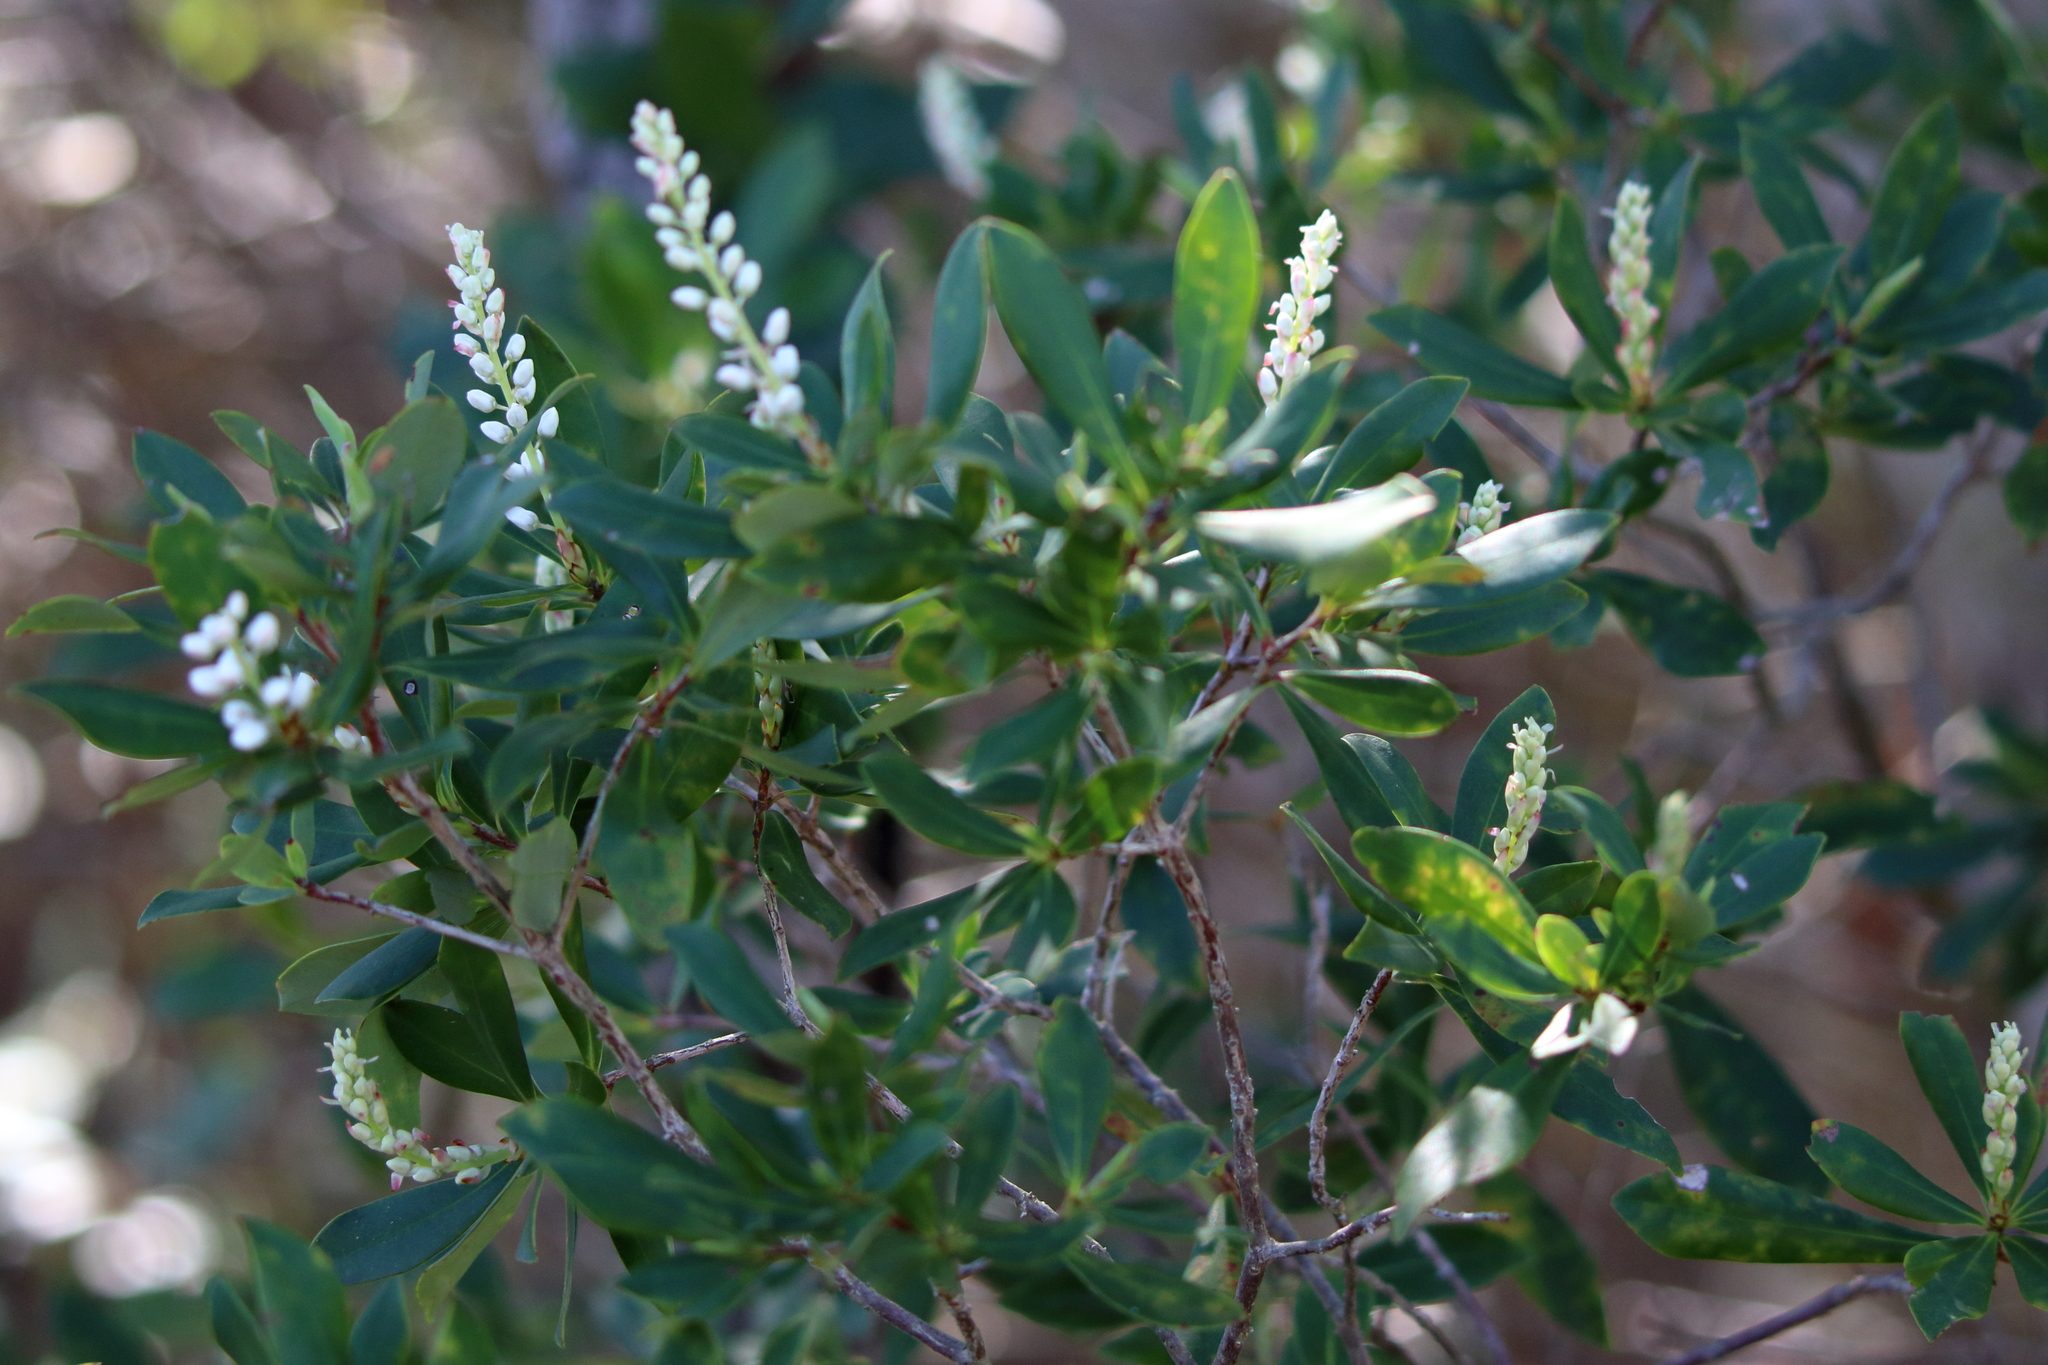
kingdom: Plantae
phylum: Tracheophyta
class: Magnoliopsida
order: Ericales
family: Cyrillaceae
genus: Cliftonia
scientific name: Cliftonia monophylla
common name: Titi
